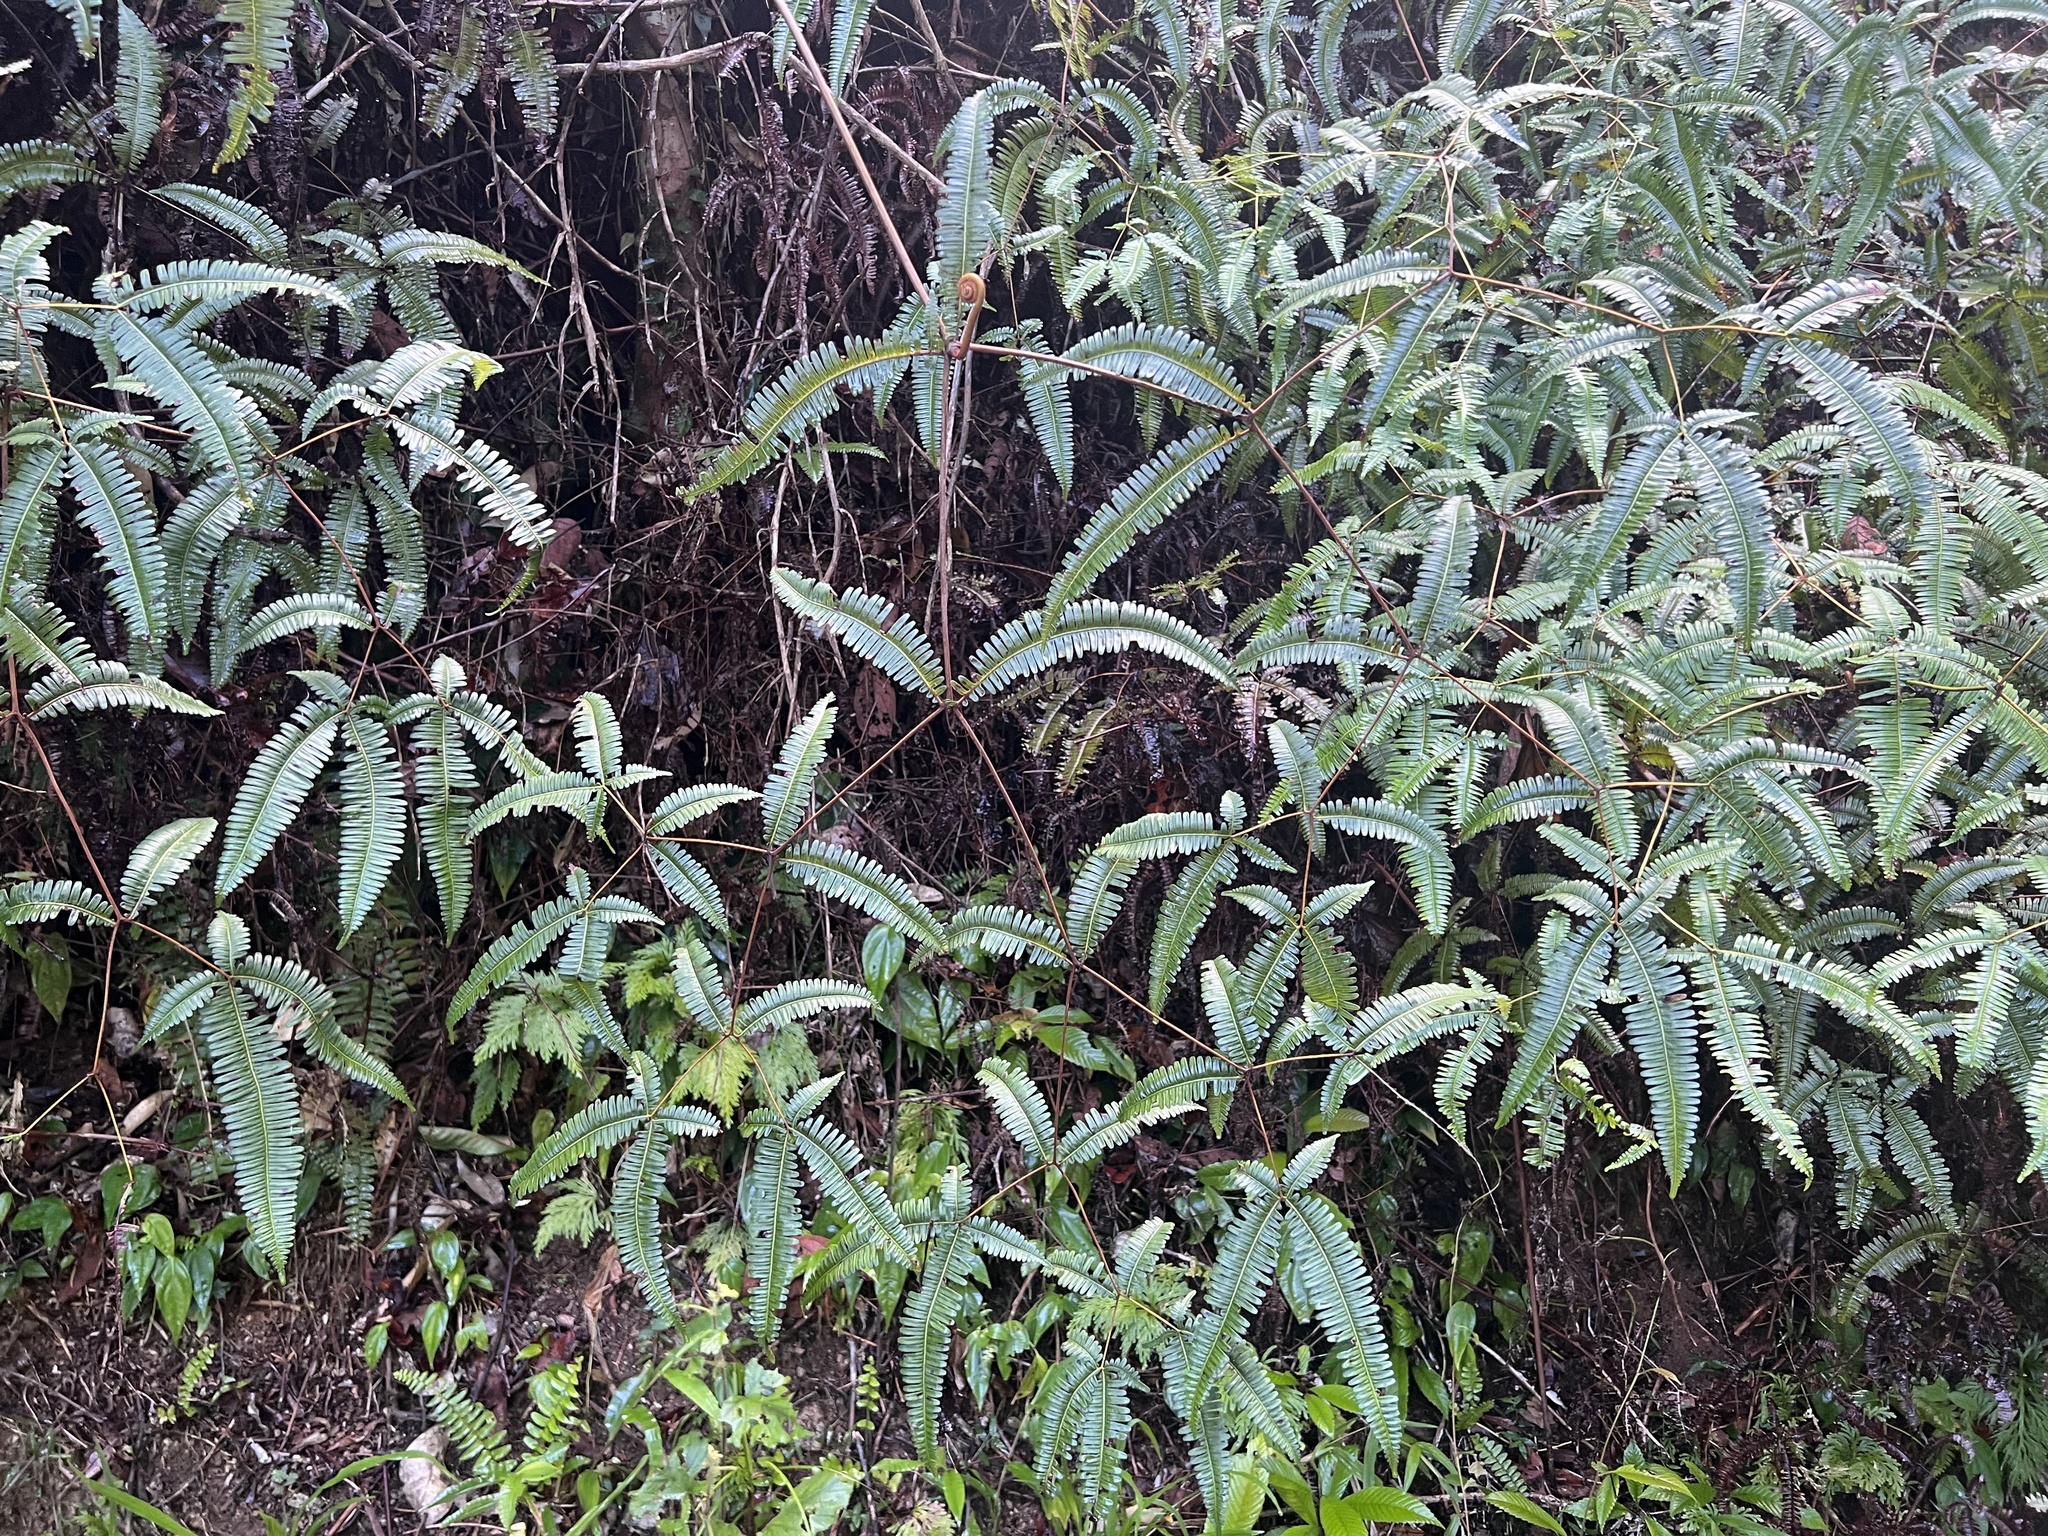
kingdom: Plantae
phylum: Tracheophyta
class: Polypodiopsida
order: Gleicheniales
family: Gleicheniaceae
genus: Dicranopteris
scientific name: Dicranopteris linearis
